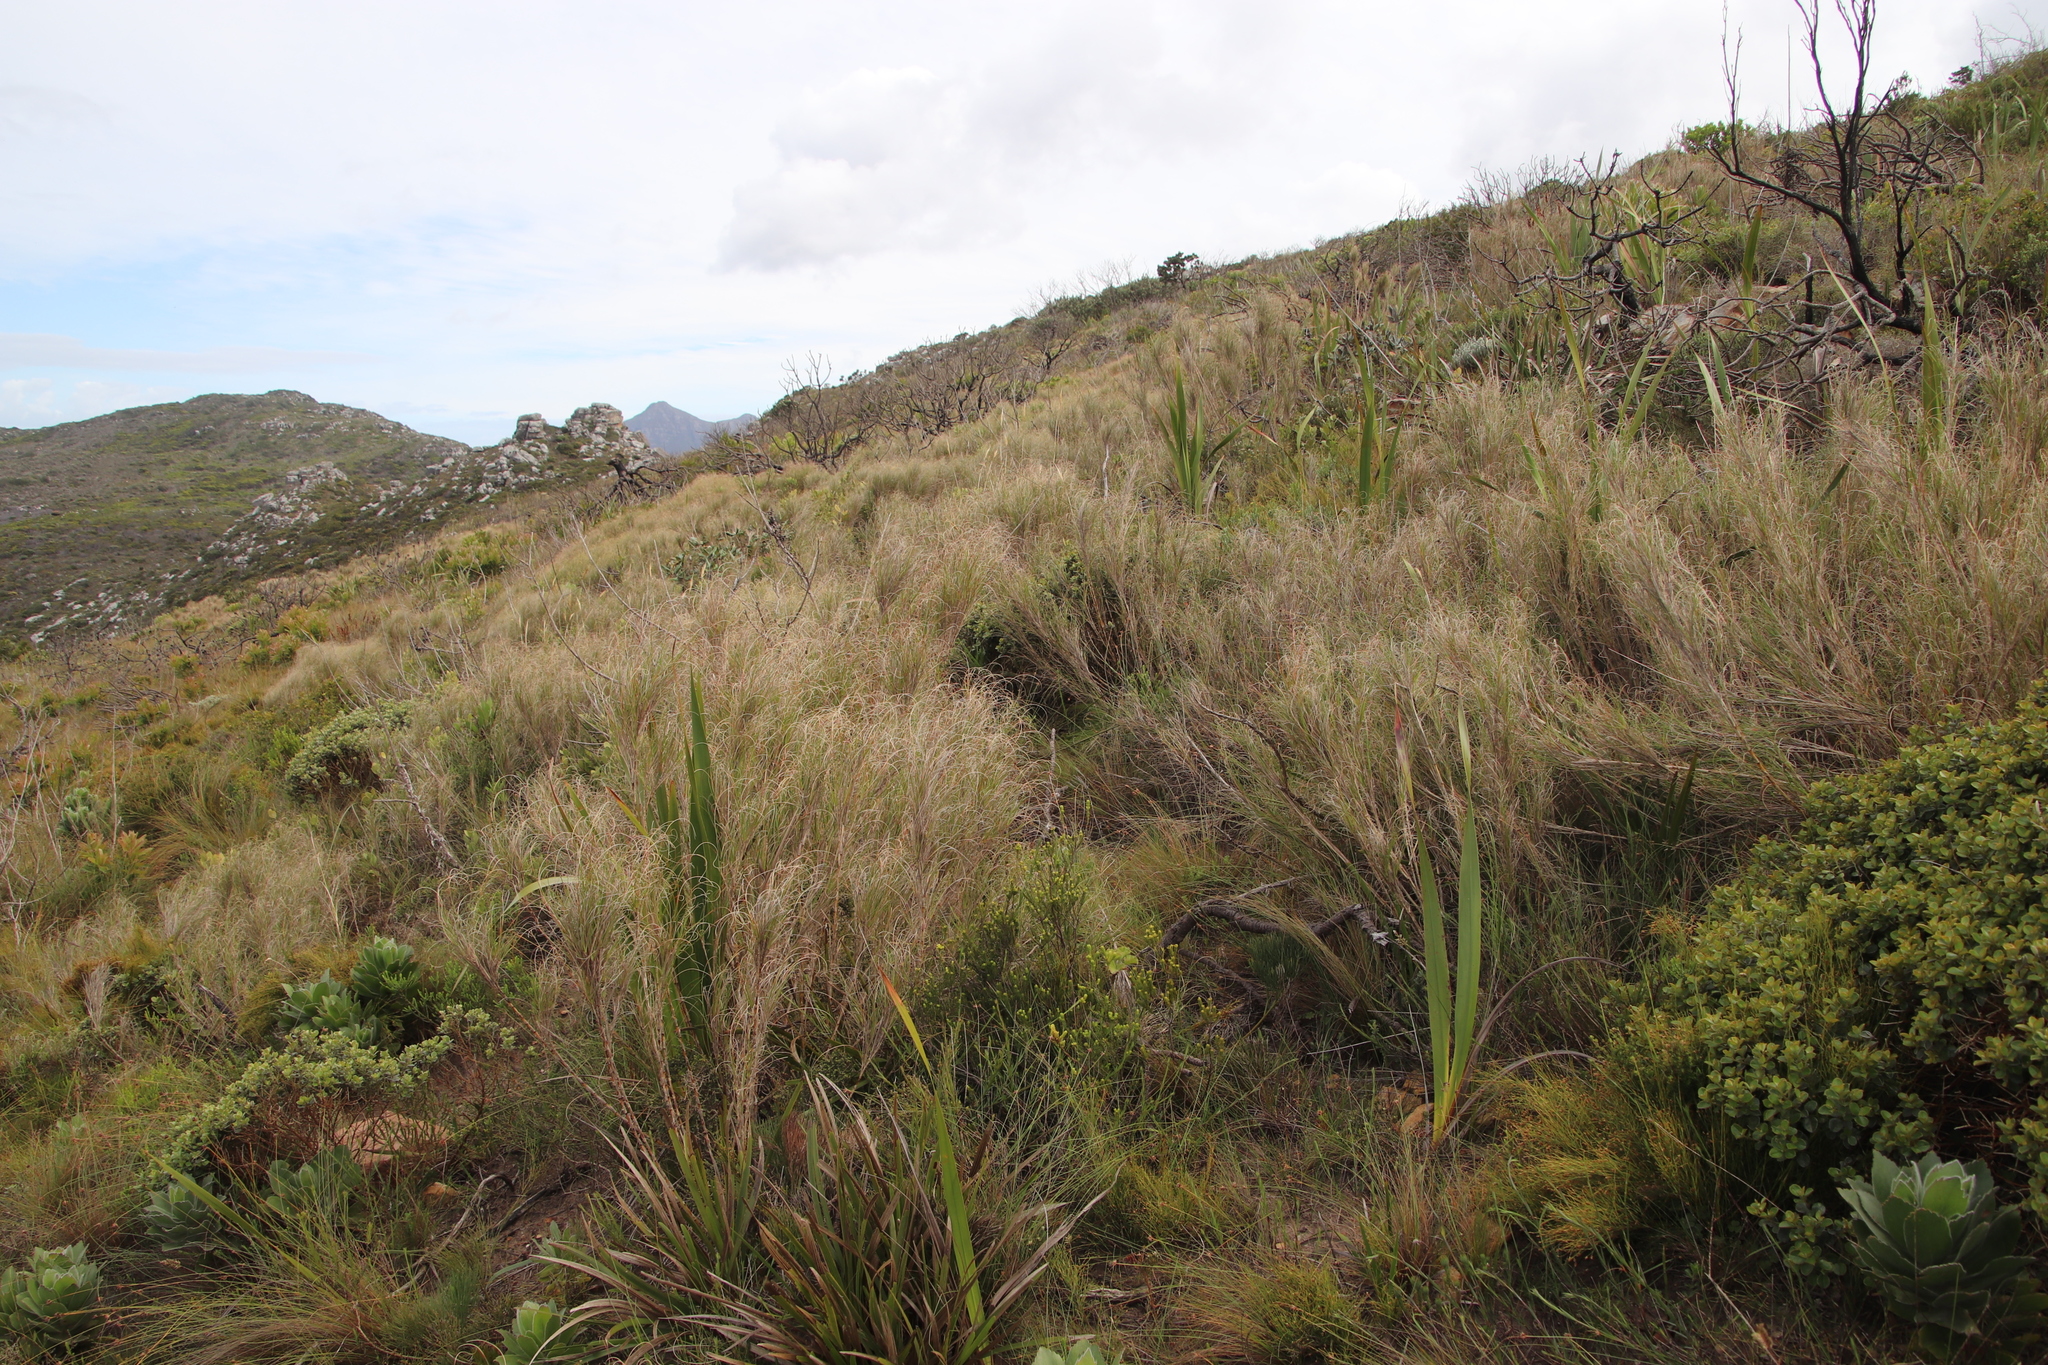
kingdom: Plantae
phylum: Tracheophyta
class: Liliopsida
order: Poales
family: Poaceae
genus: Pseudopentameris
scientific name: Pseudopentameris macrantha
